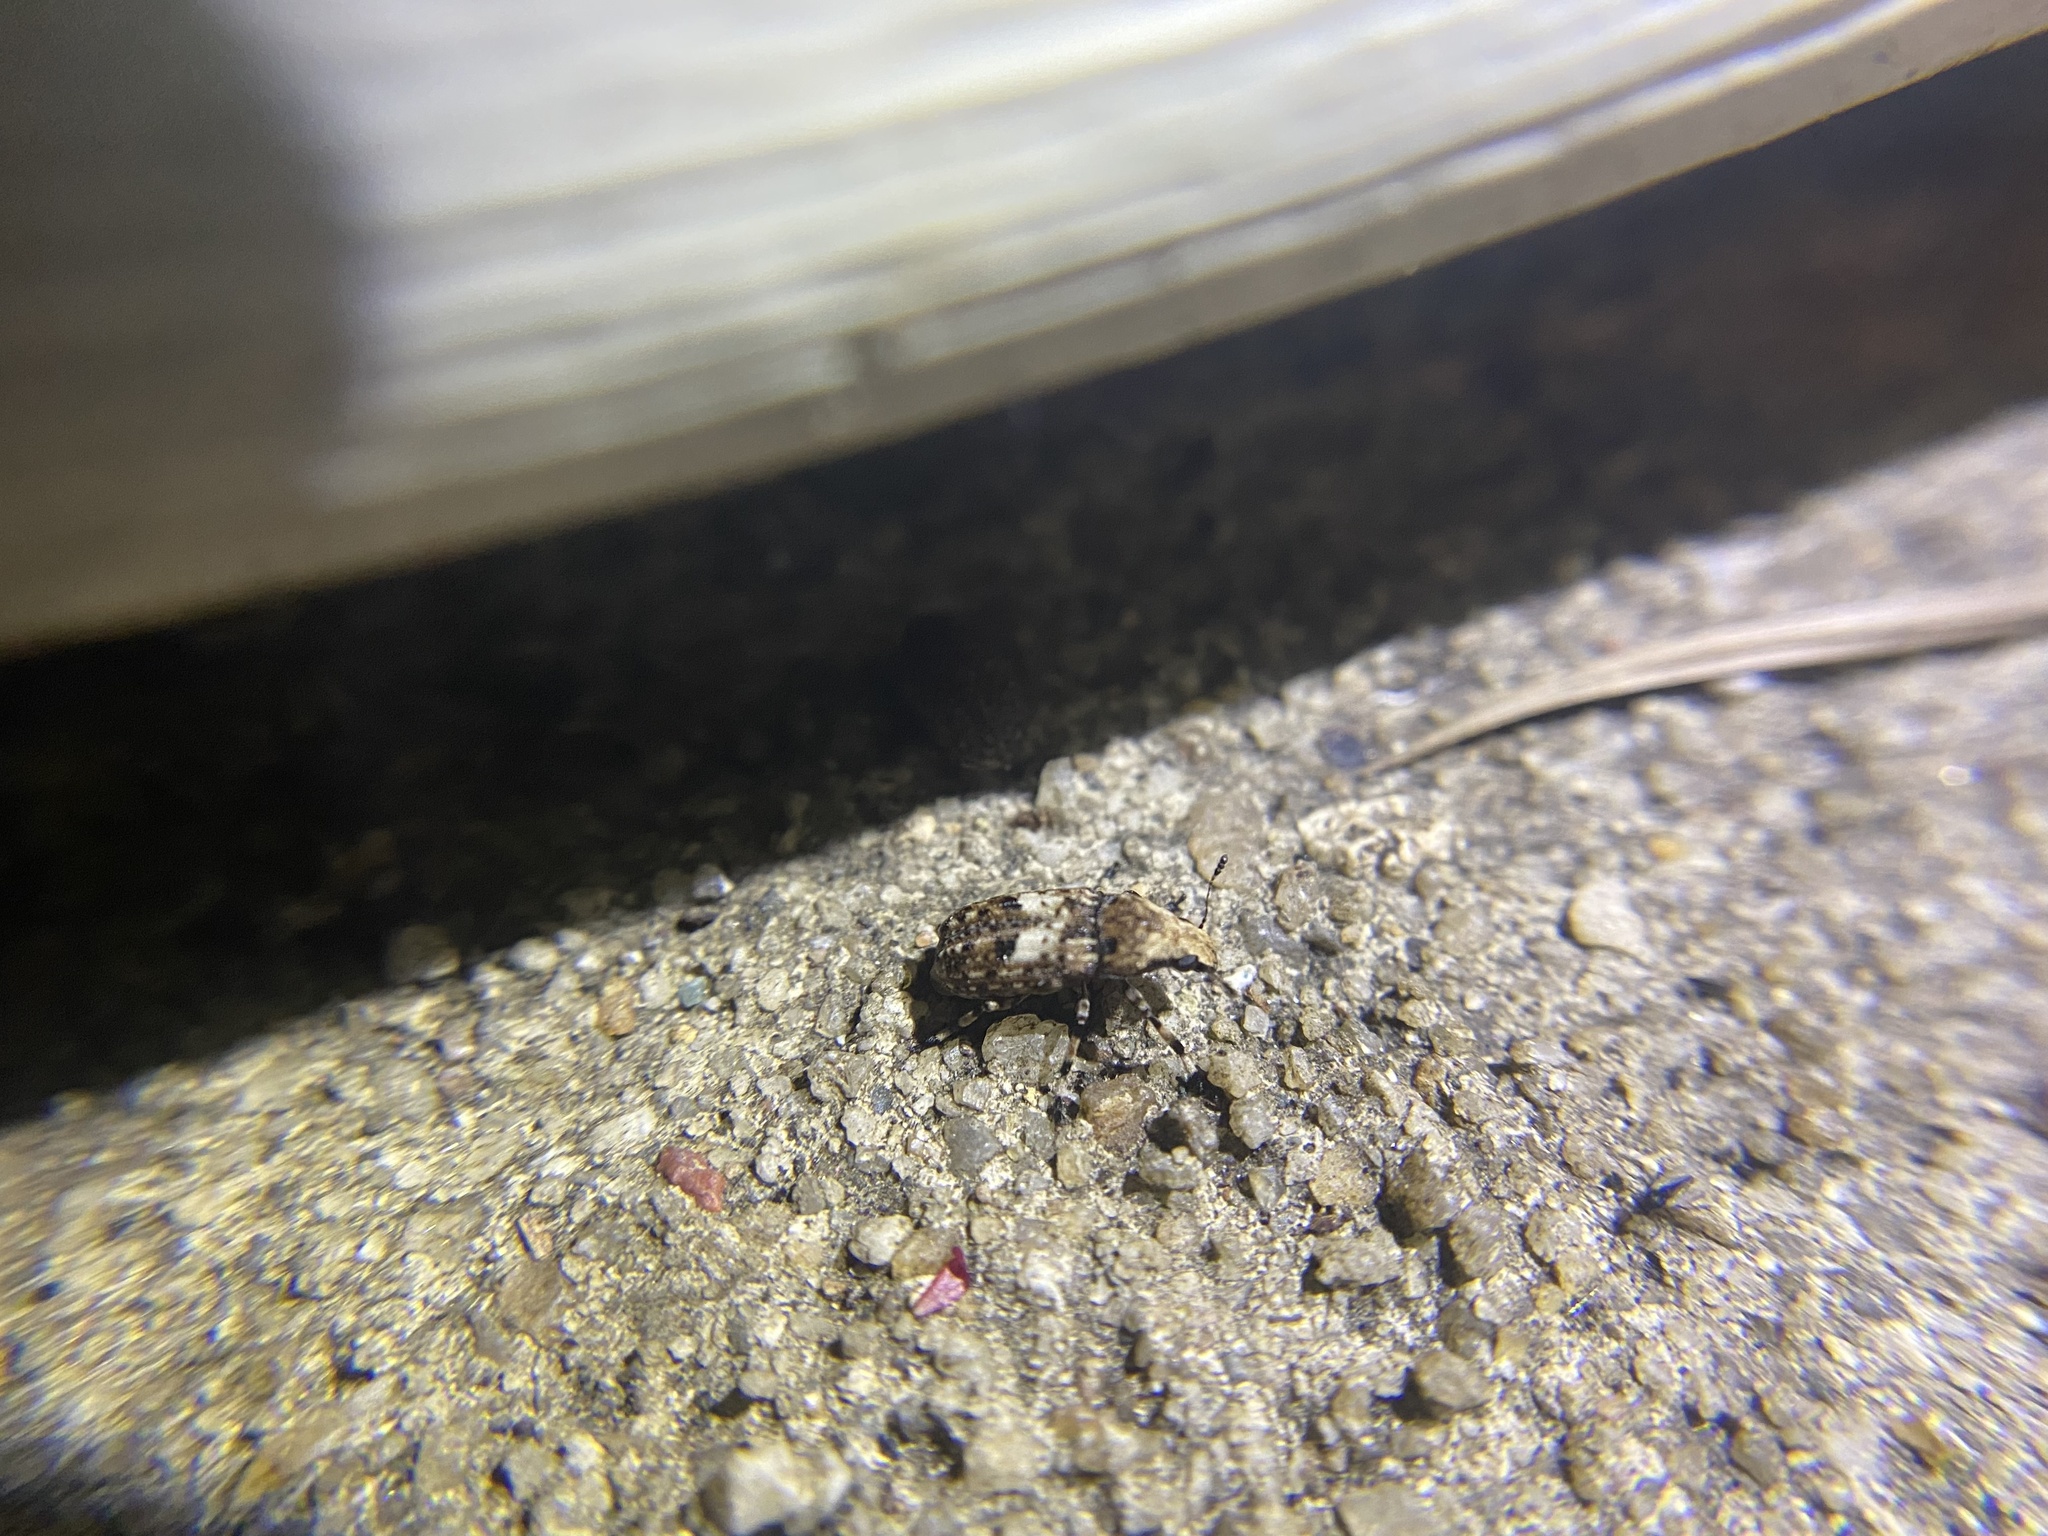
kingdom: Animalia
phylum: Arthropoda
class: Insecta
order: Coleoptera
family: Anthribidae
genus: Euparius
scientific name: Euparius marmoreus
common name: Marbled fungus weevil
